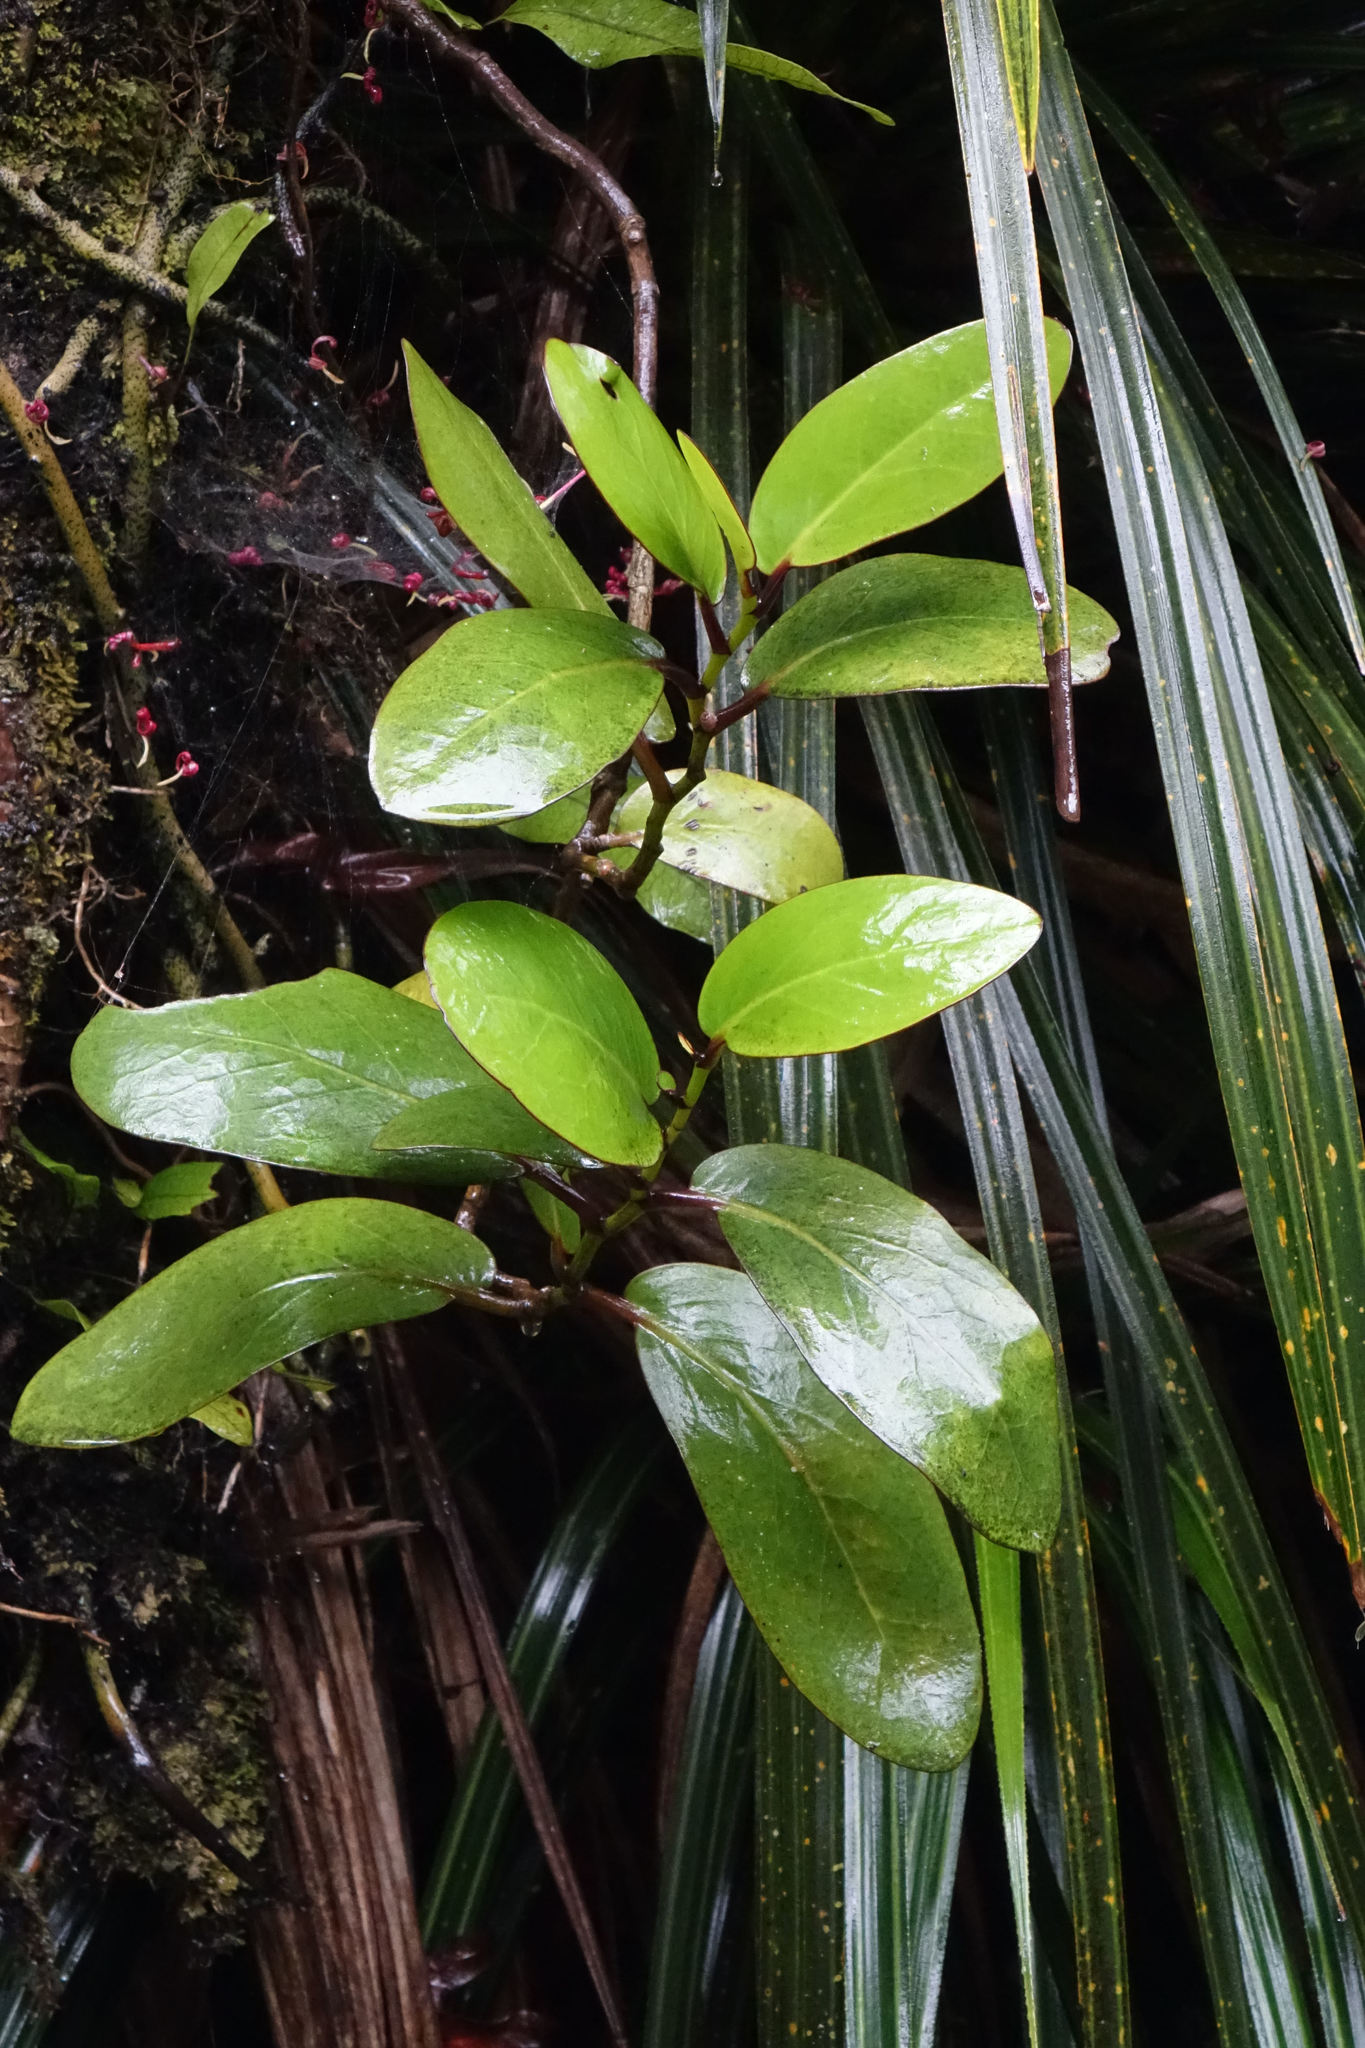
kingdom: Plantae
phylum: Tracheophyta
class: Magnoliopsida
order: Apiales
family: Griseliniaceae
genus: Griselinia
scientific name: Griselinia lucida
